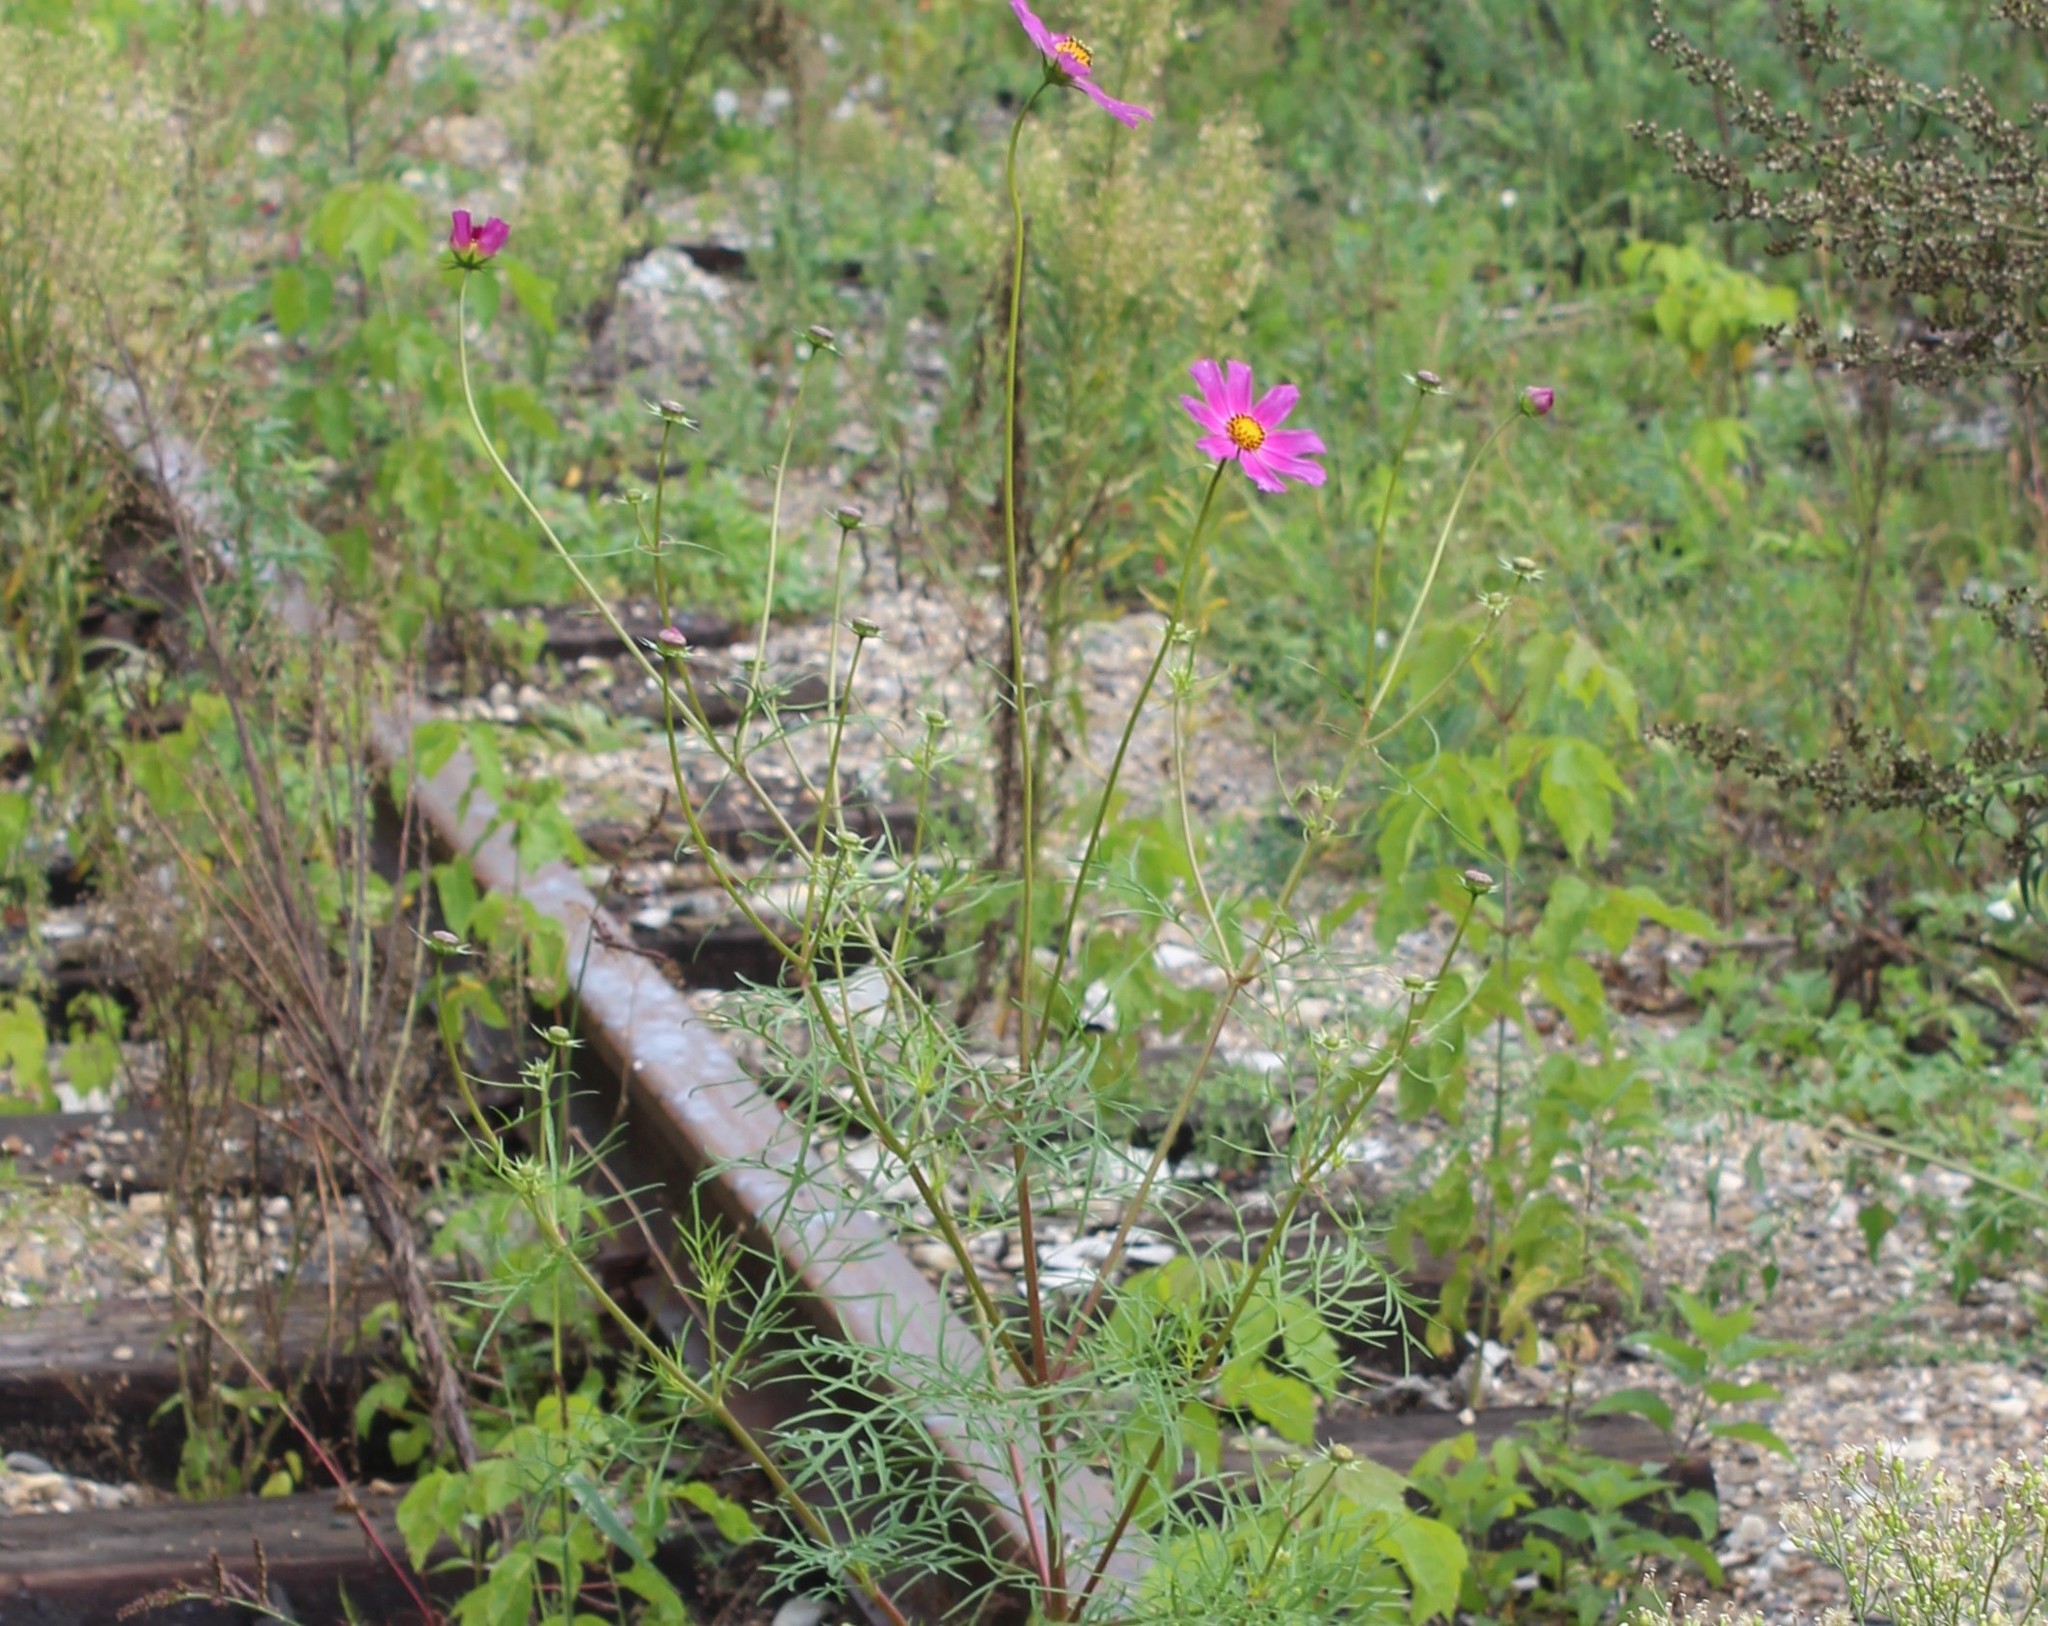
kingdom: Plantae
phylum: Tracheophyta
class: Magnoliopsida
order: Asterales
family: Asteraceae
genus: Cosmos
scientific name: Cosmos bipinnatus
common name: Garden cosmos
